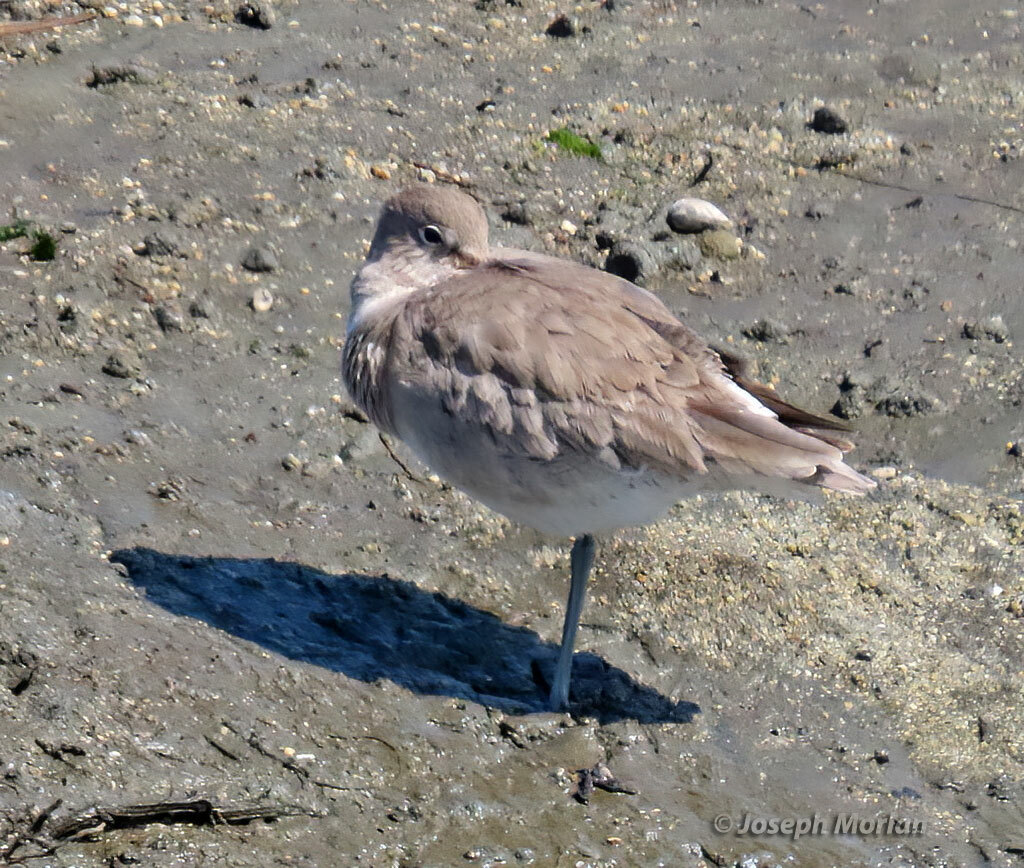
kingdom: Animalia
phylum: Chordata
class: Aves
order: Charadriiformes
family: Scolopacidae
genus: Tringa
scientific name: Tringa semipalmata
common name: Willet
